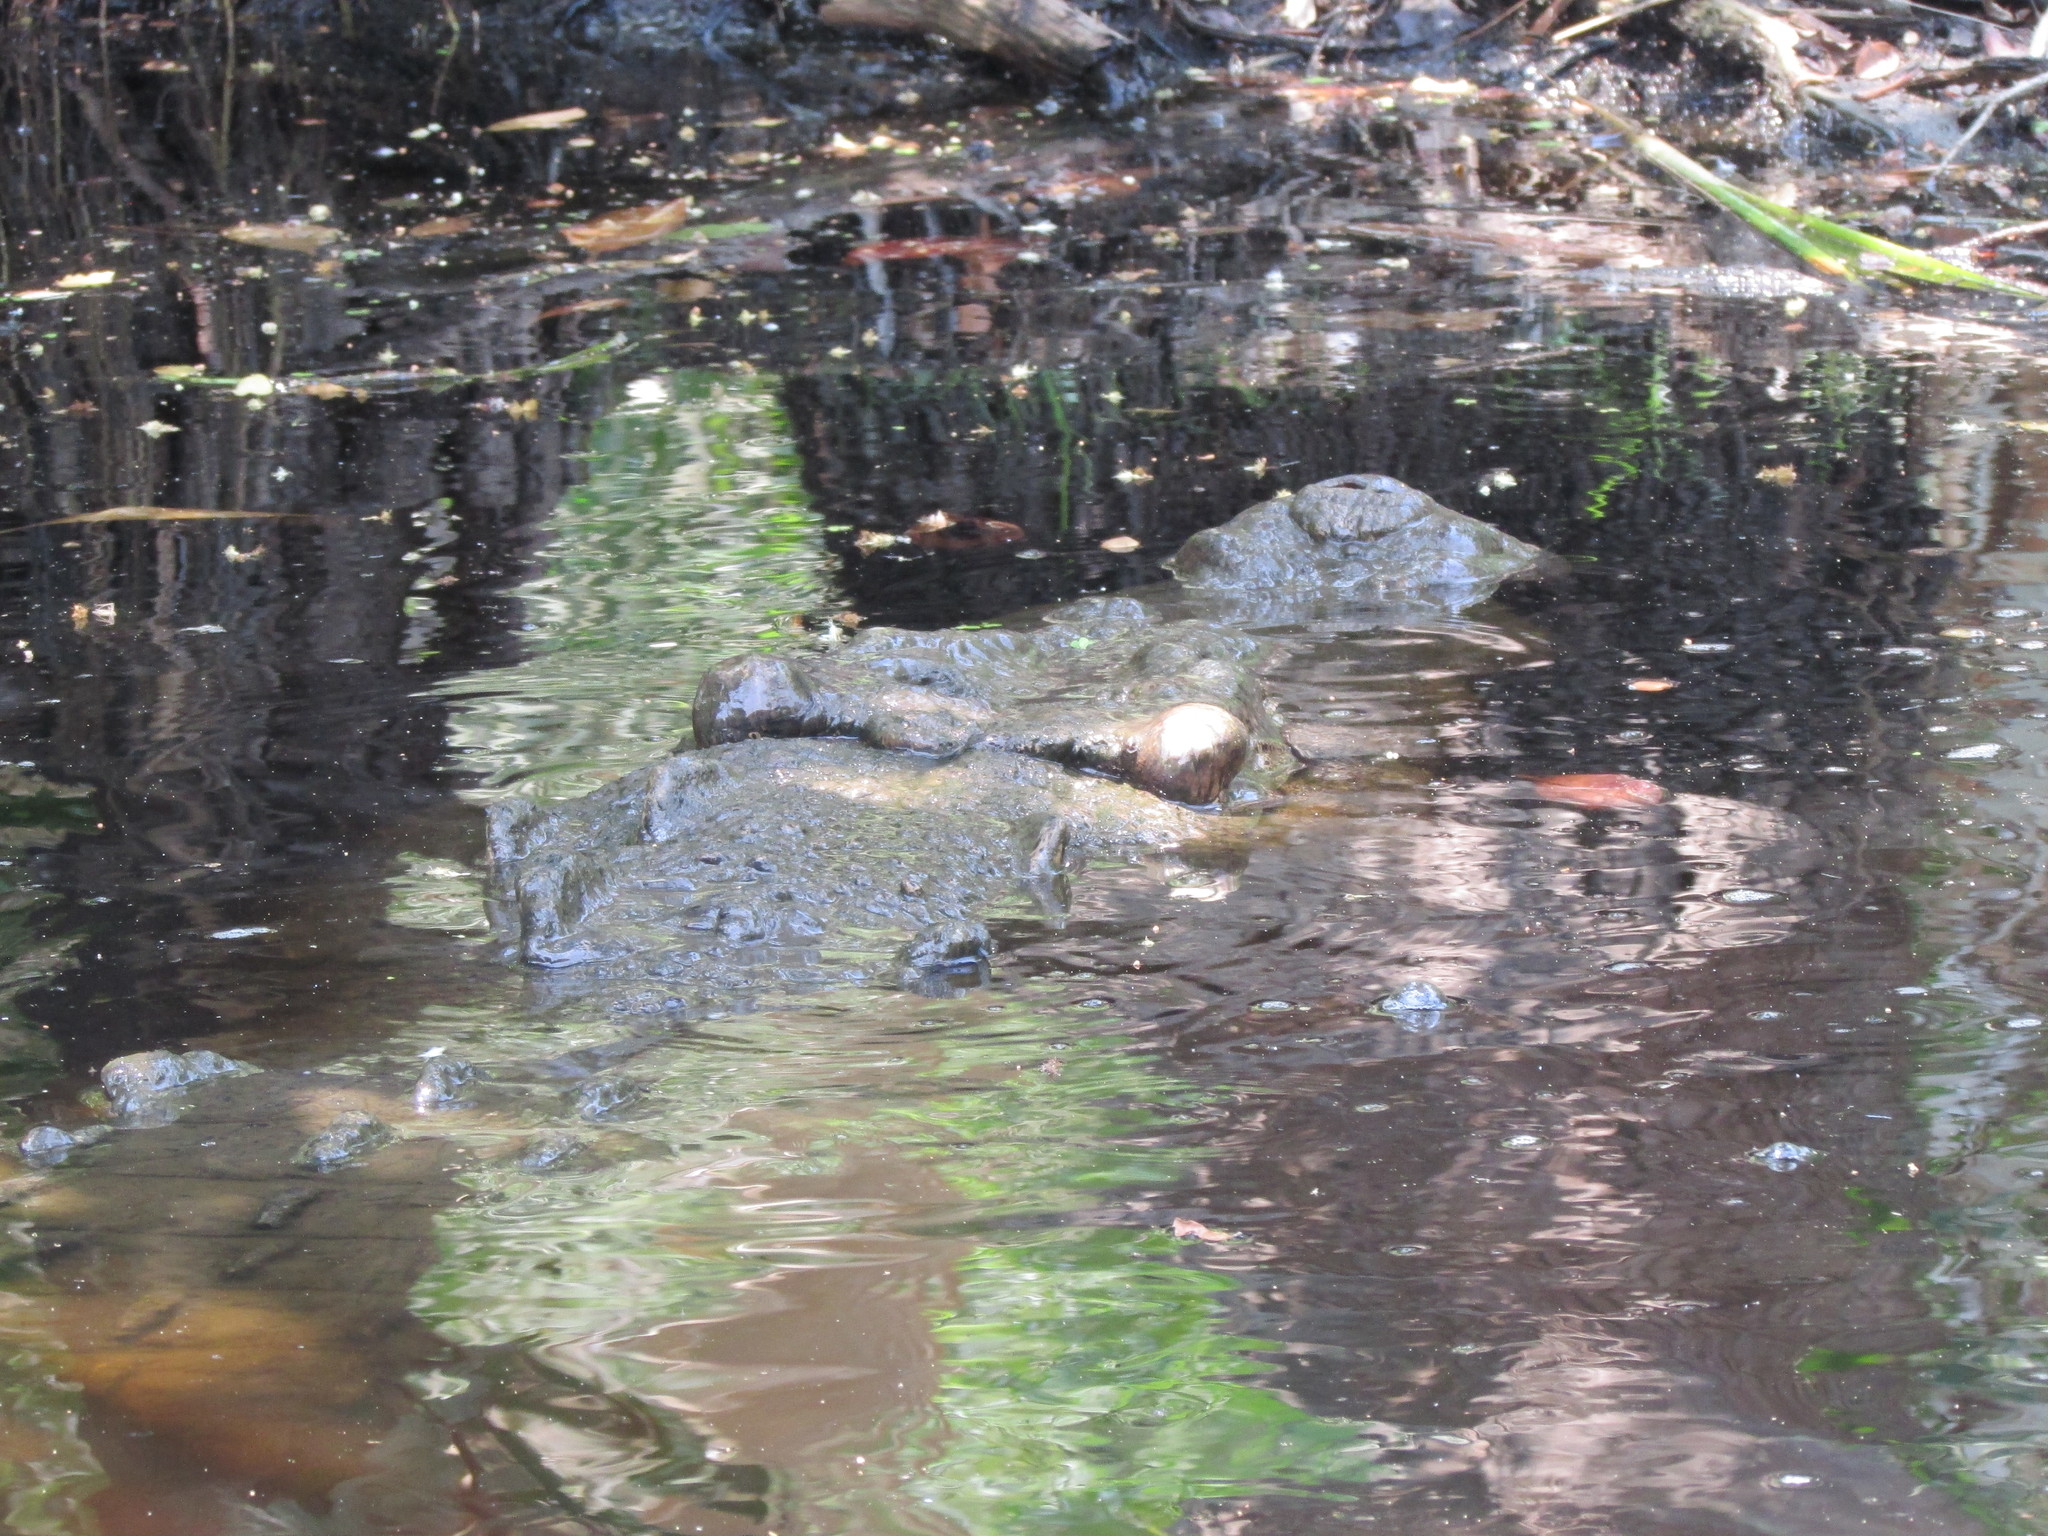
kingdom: Animalia
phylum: Chordata
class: Crocodylia
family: Crocodylidae
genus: Crocodylus
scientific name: Crocodylus acutus
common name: American crocodile
